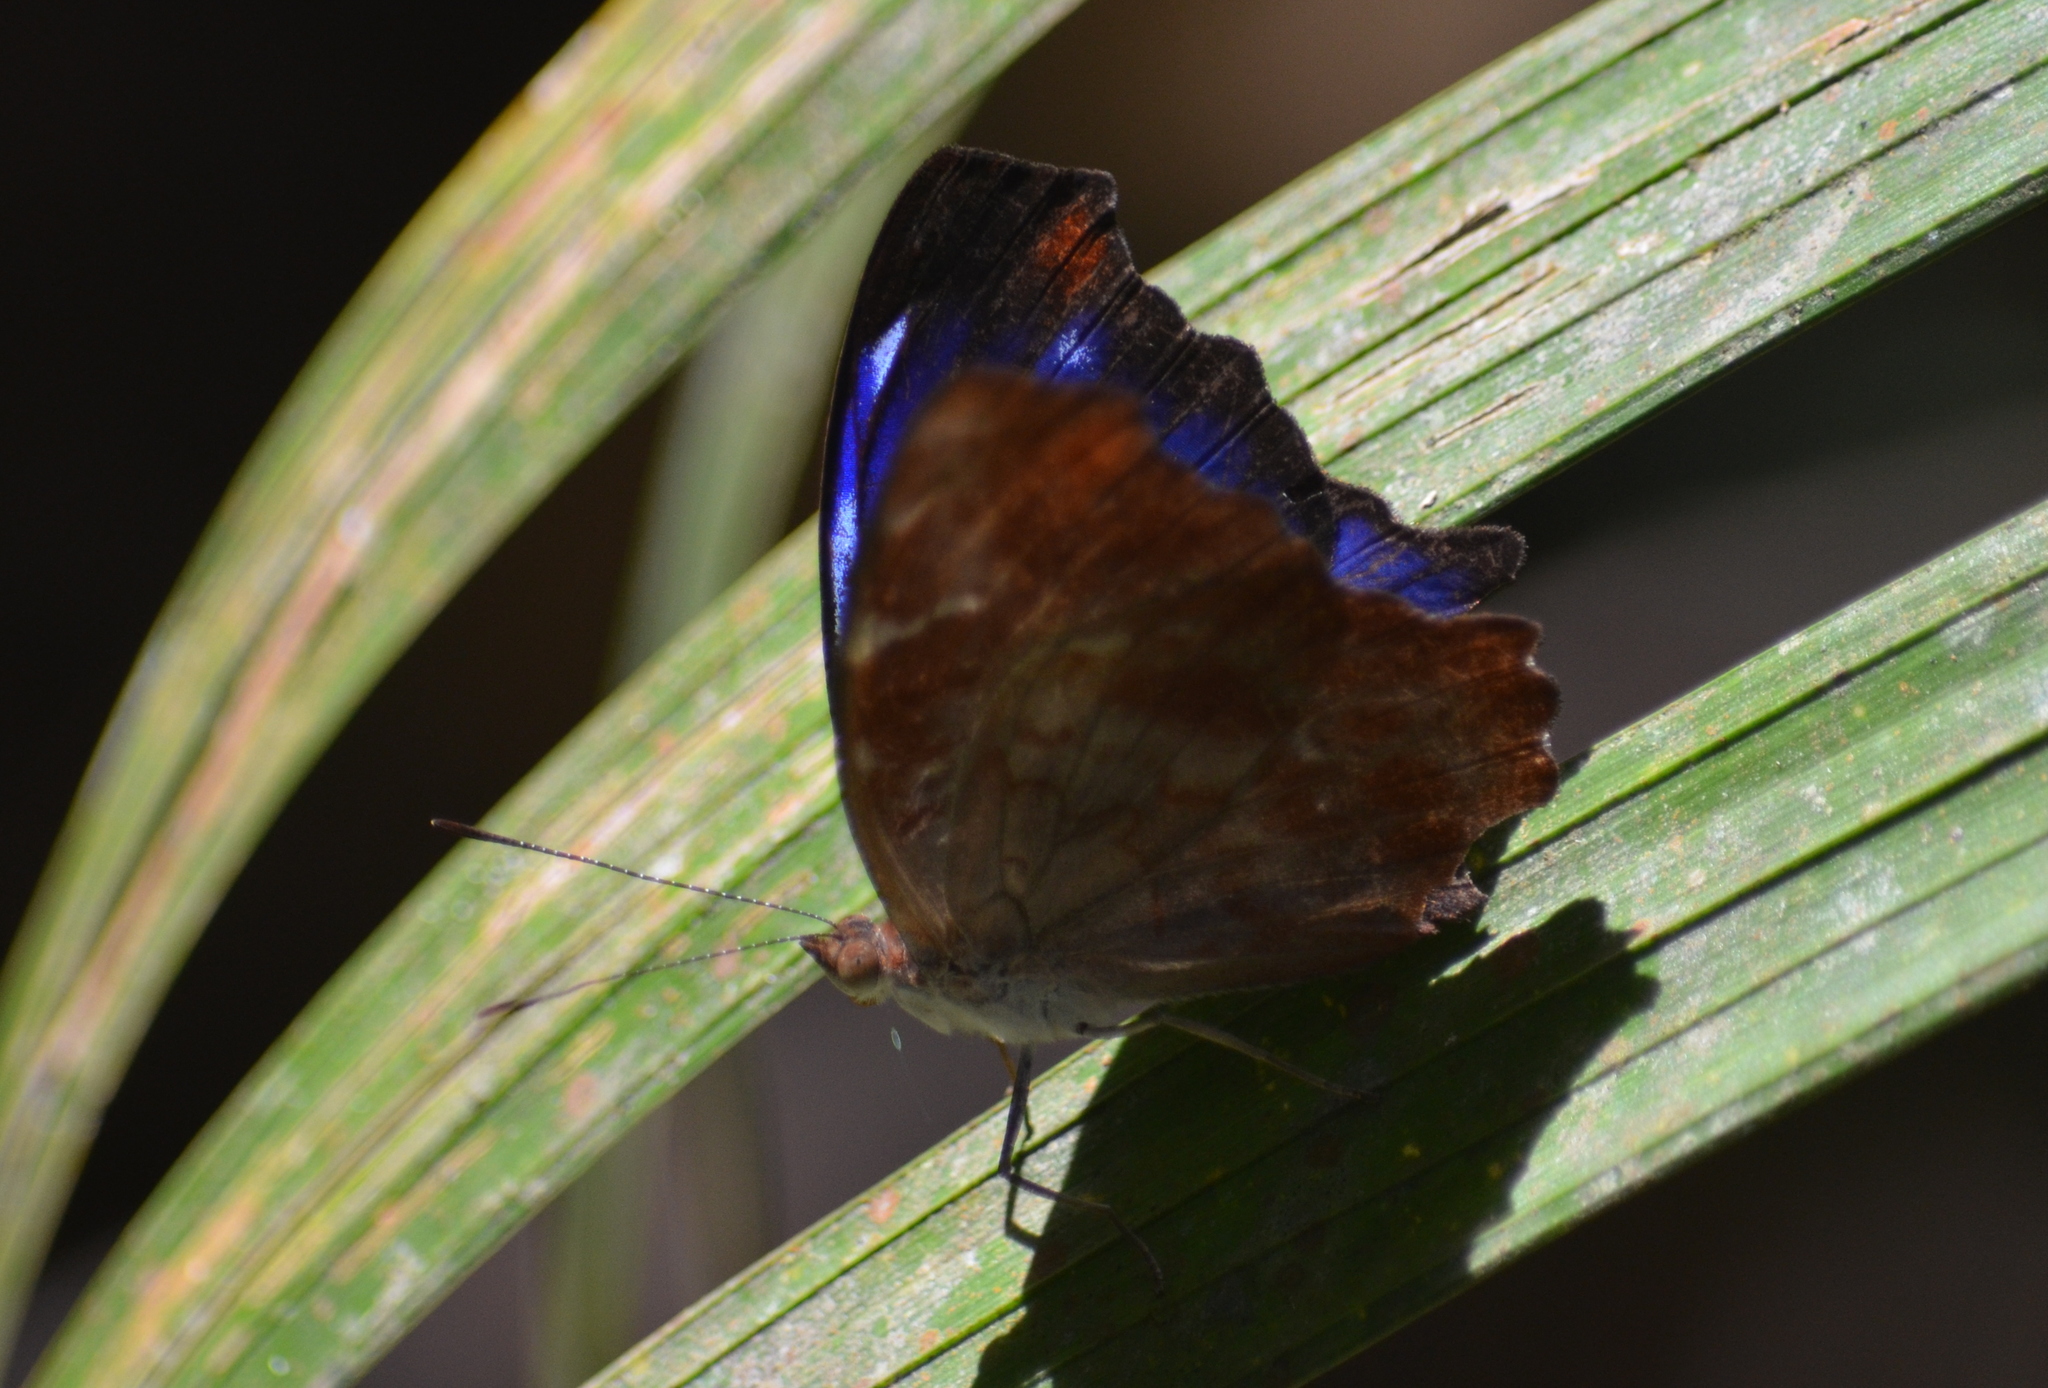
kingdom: Animalia
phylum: Arthropoda
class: Insecta
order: Lepidoptera
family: Nymphalidae
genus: Myscelia
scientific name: Myscelia orsis
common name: Orsis bluewing
